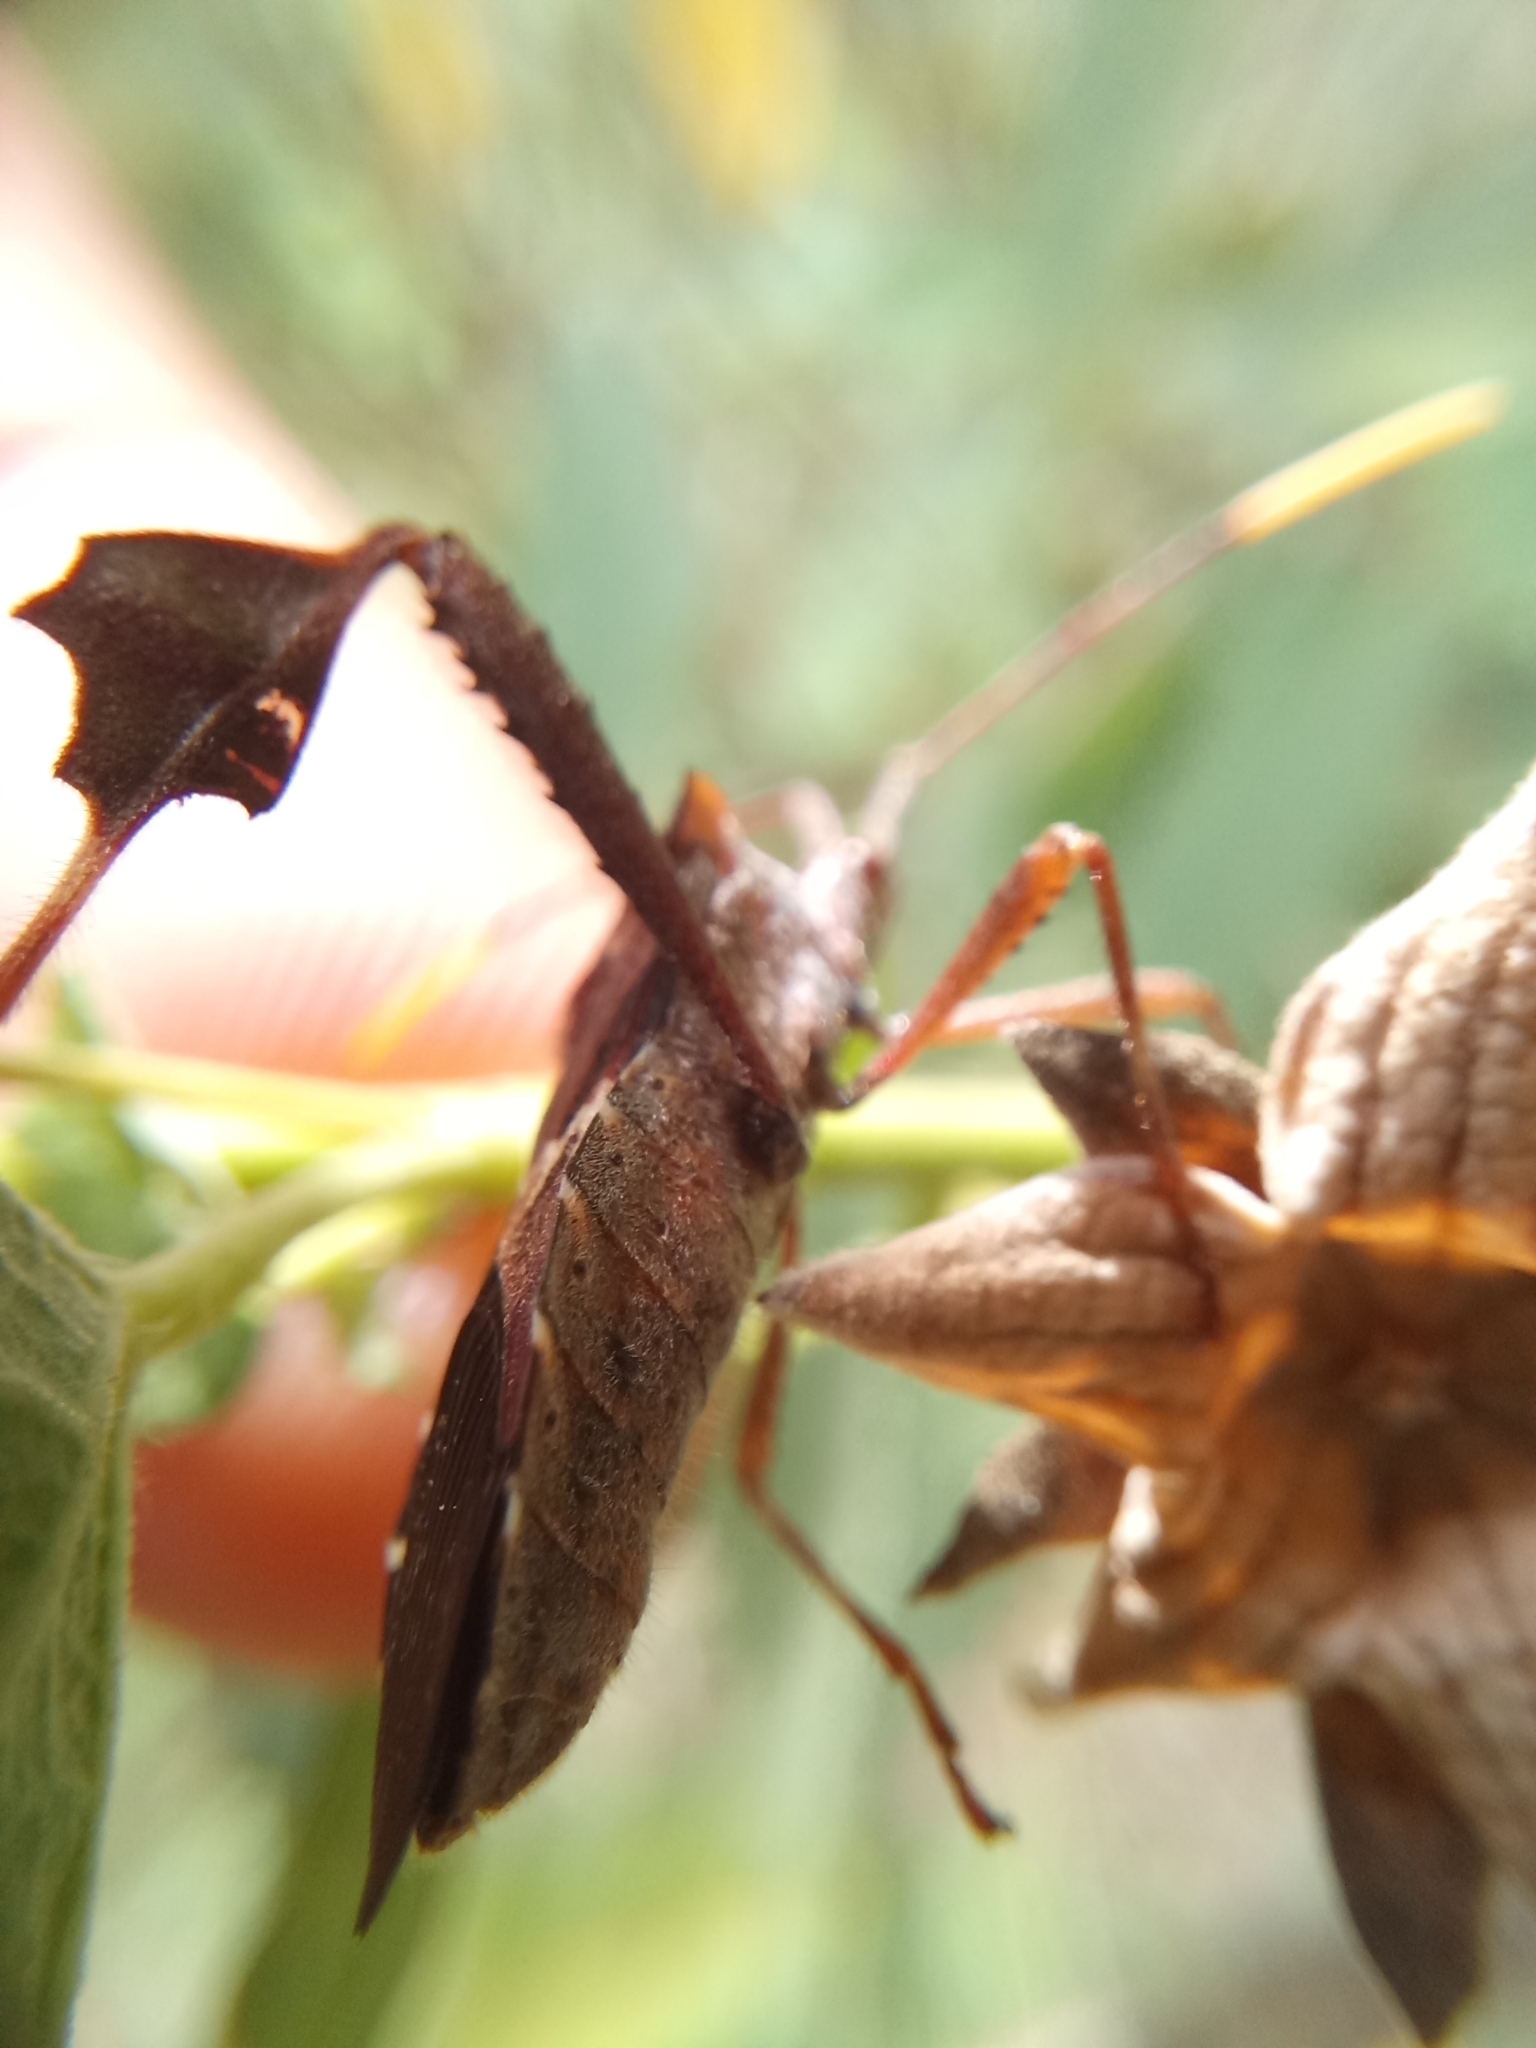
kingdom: Animalia
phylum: Arthropoda
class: Insecta
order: Hemiptera
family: Coreidae
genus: Leptoglossus
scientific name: Leptoglossus neovexillatus
